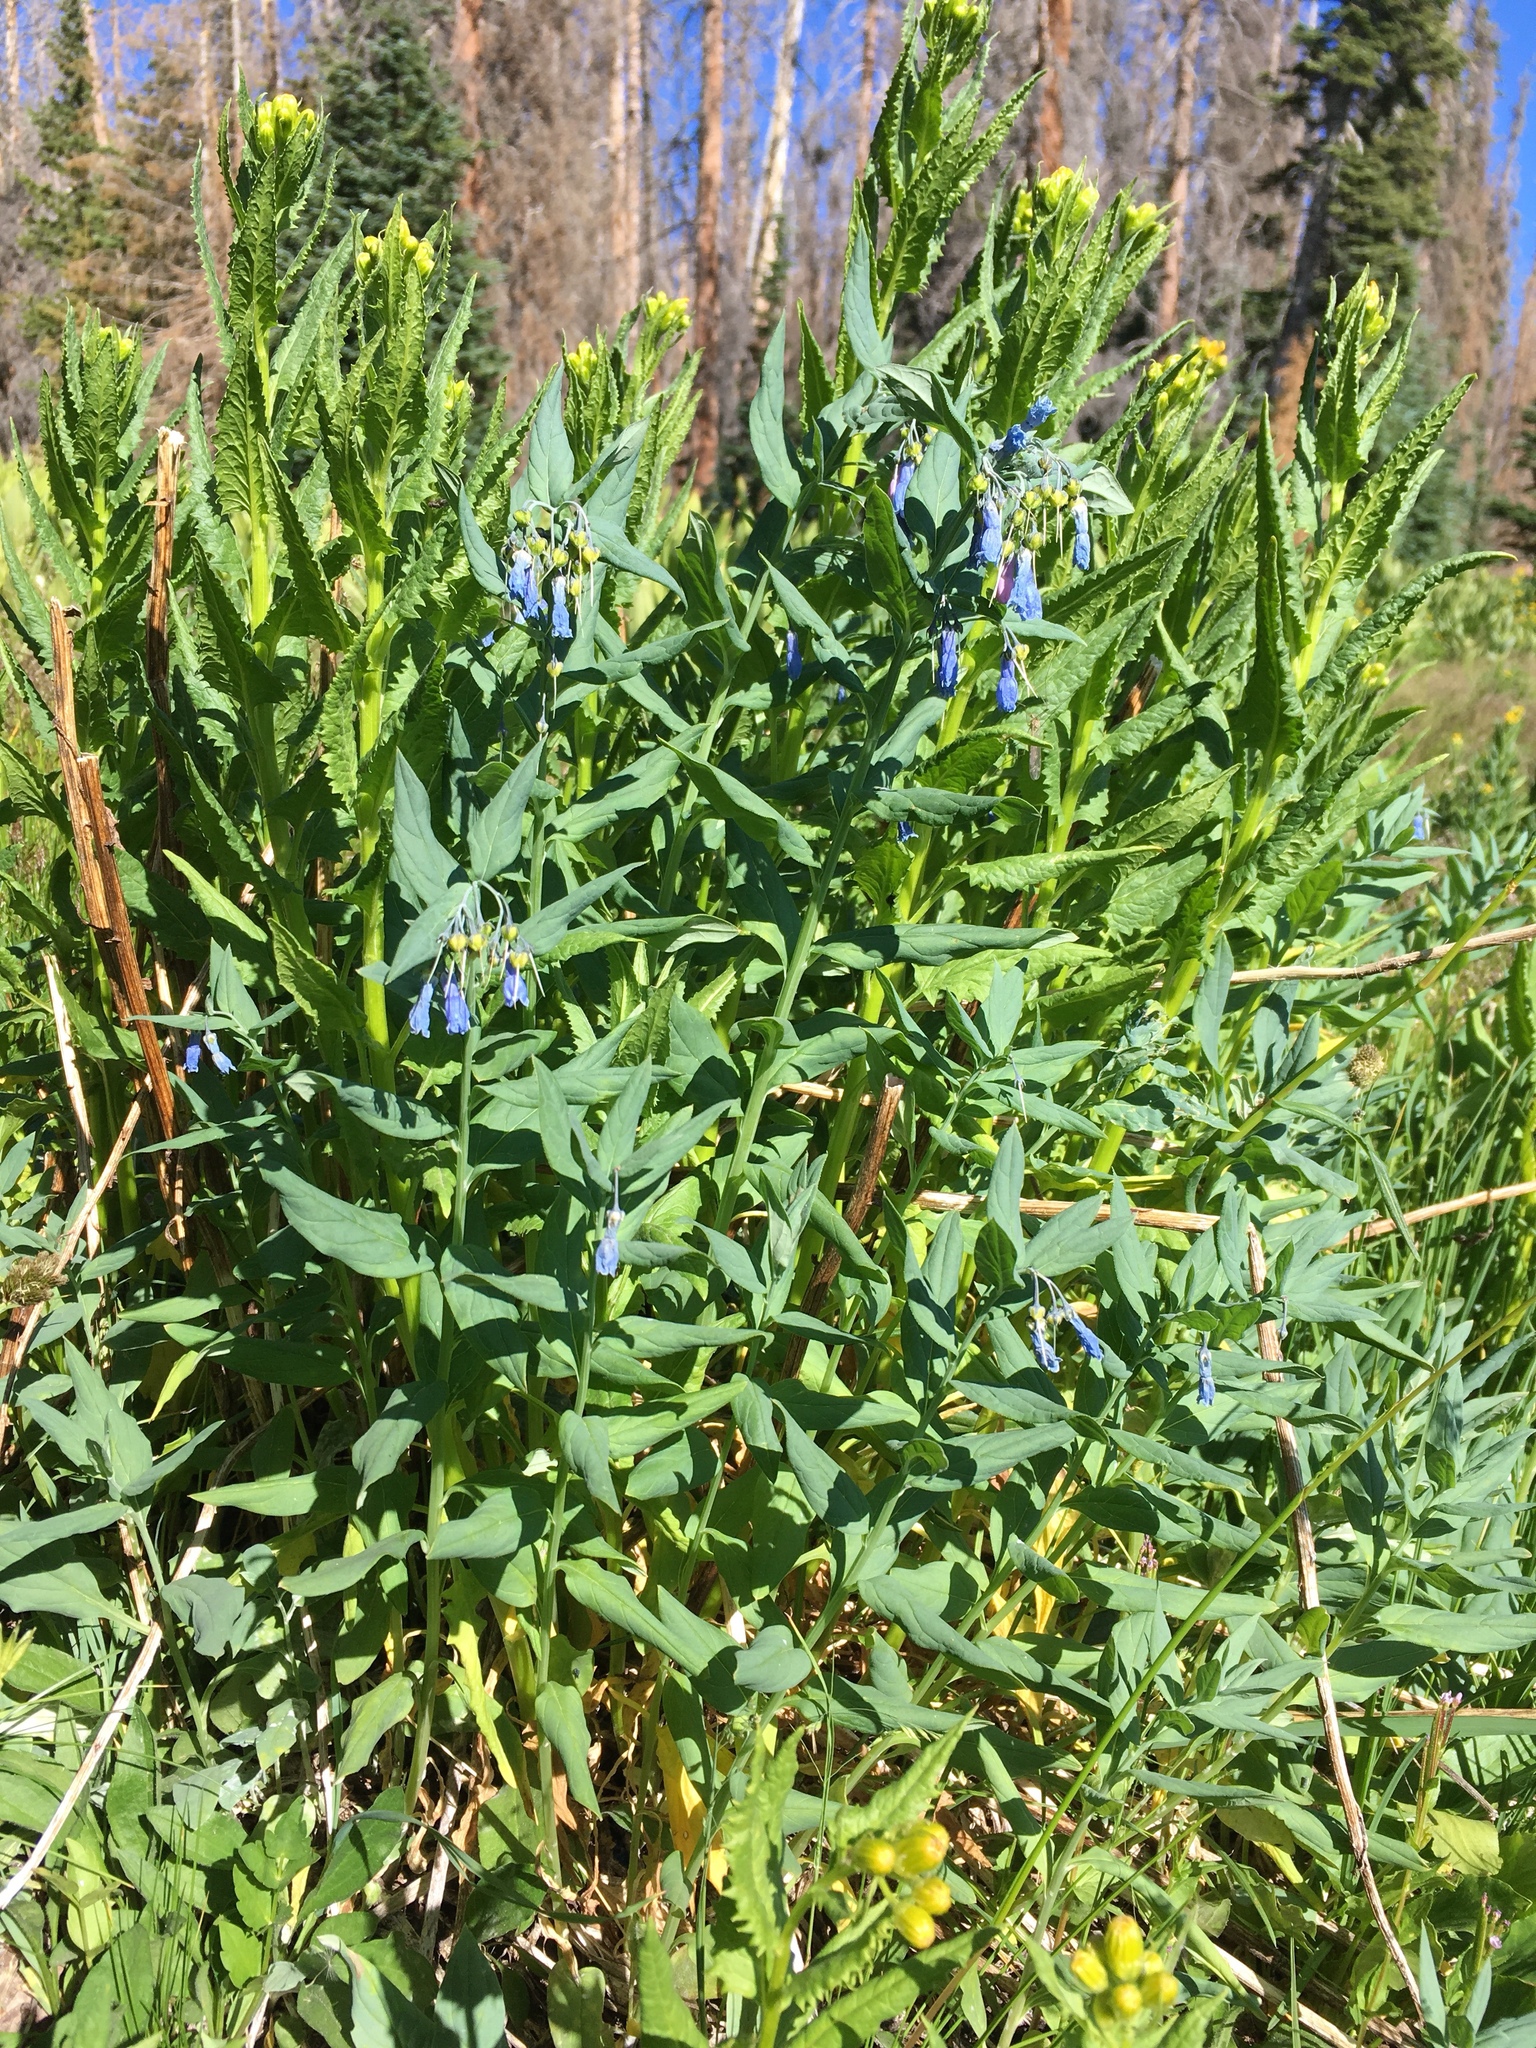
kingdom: Plantae
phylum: Tracheophyta
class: Magnoliopsida
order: Boraginales
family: Boraginaceae
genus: Mertensia
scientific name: Mertensia ciliata
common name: Tall chiming-bells
